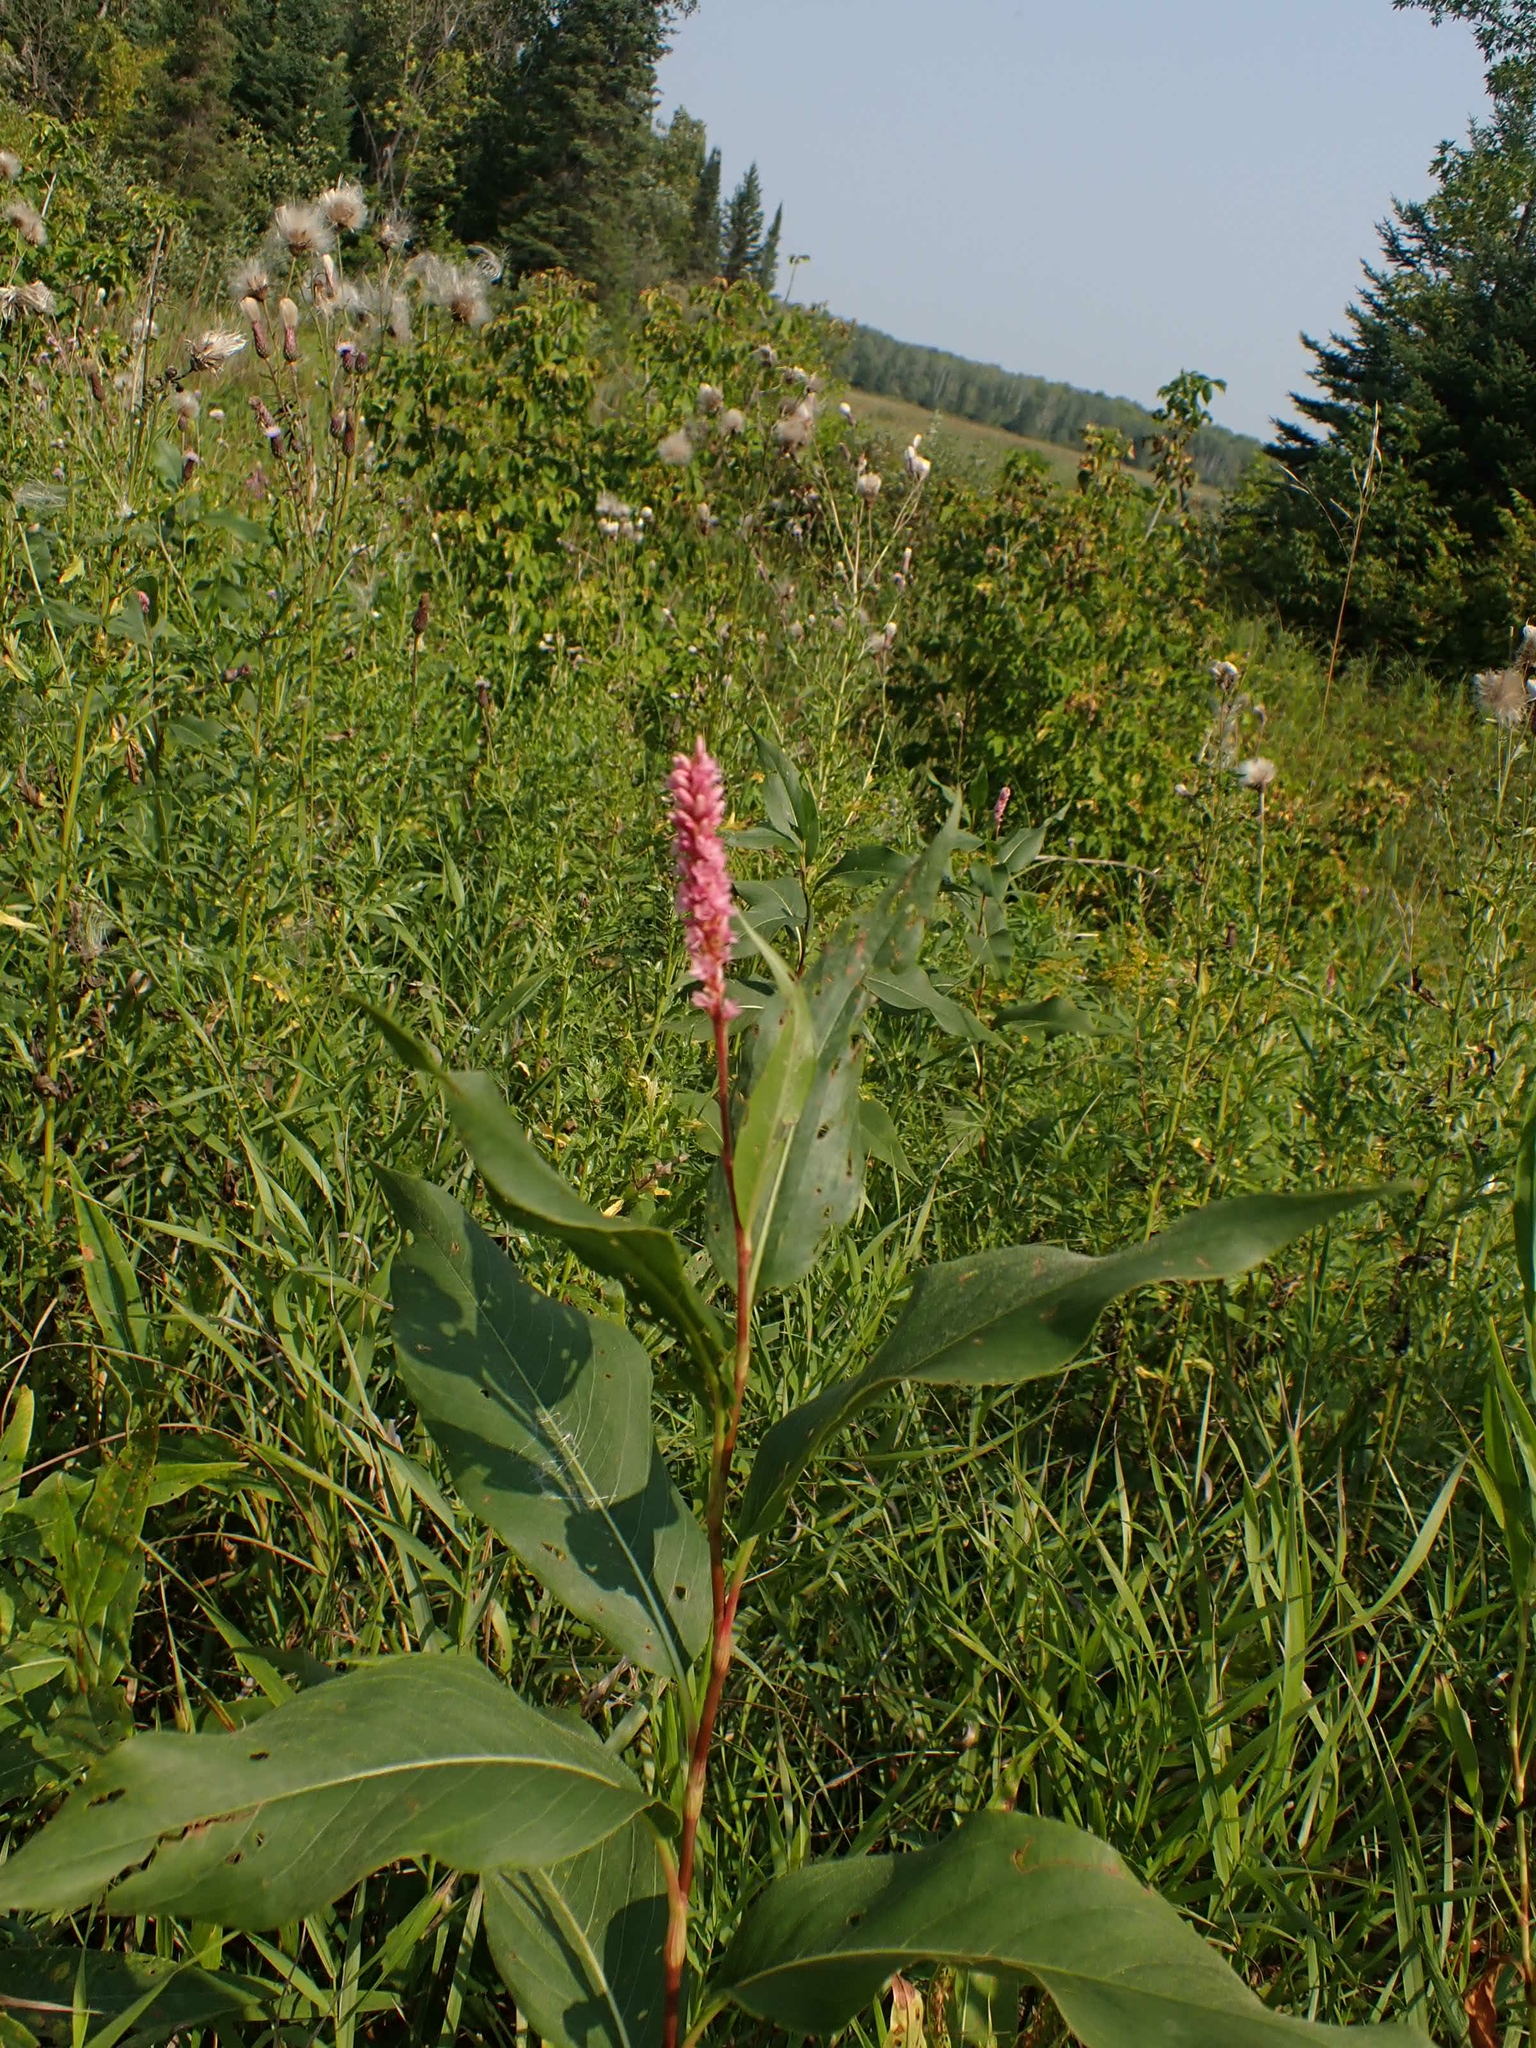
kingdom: Plantae
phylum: Tracheophyta
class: Magnoliopsida
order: Caryophyllales
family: Polygonaceae
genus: Persicaria
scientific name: Persicaria amphibia
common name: Amphibious bistort
